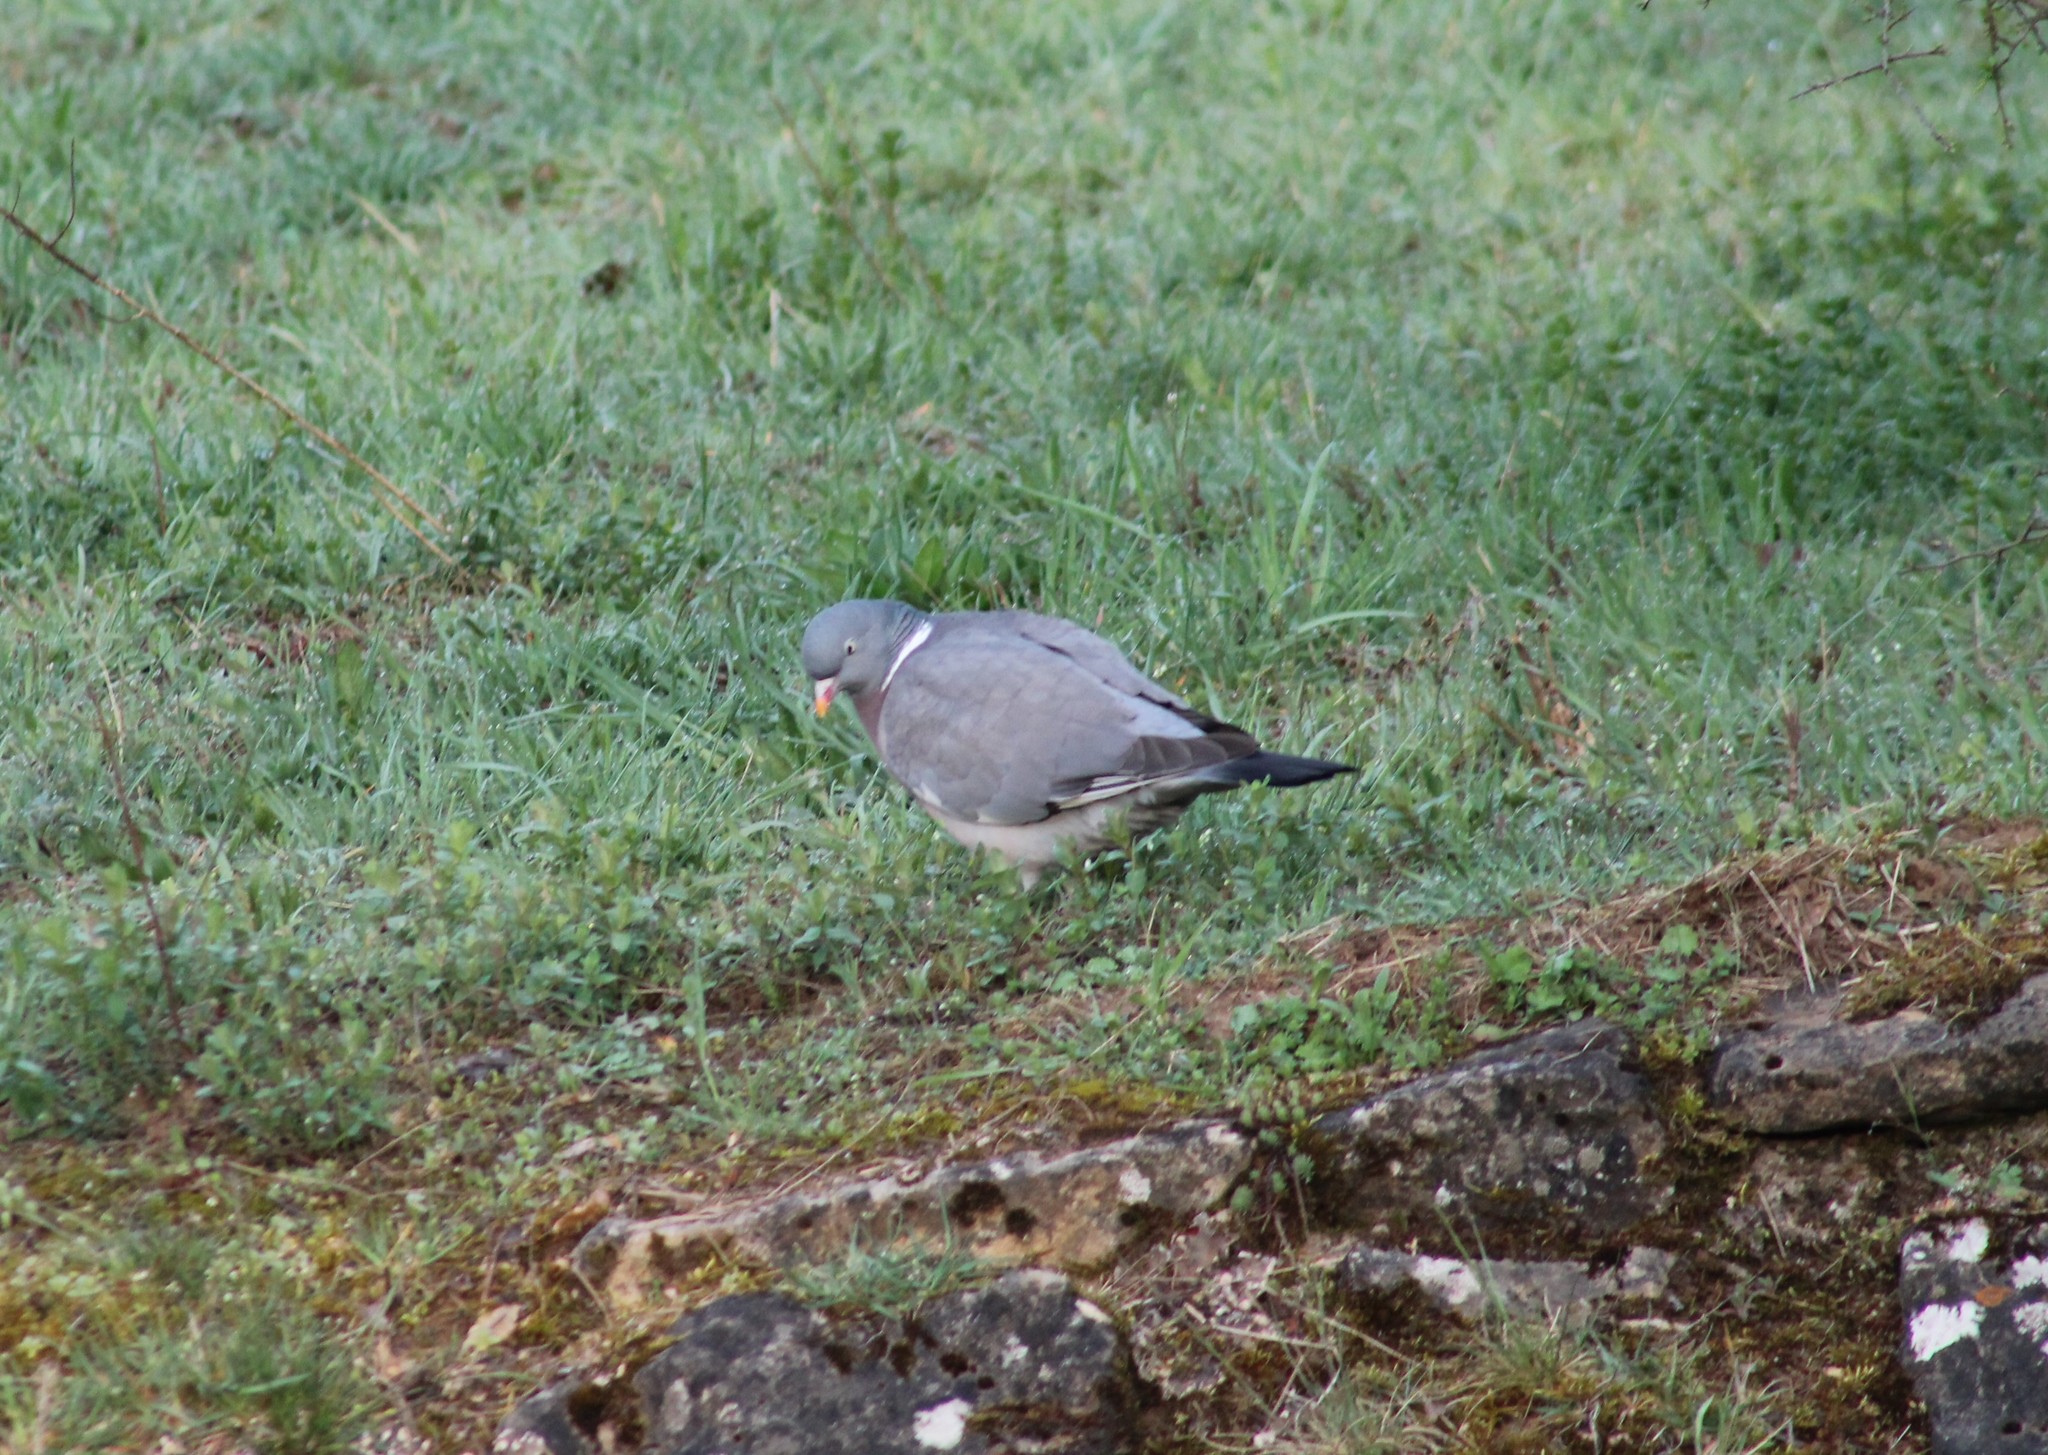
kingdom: Animalia
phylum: Chordata
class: Aves
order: Columbiformes
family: Columbidae
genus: Columba
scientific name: Columba palumbus
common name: Common wood pigeon
